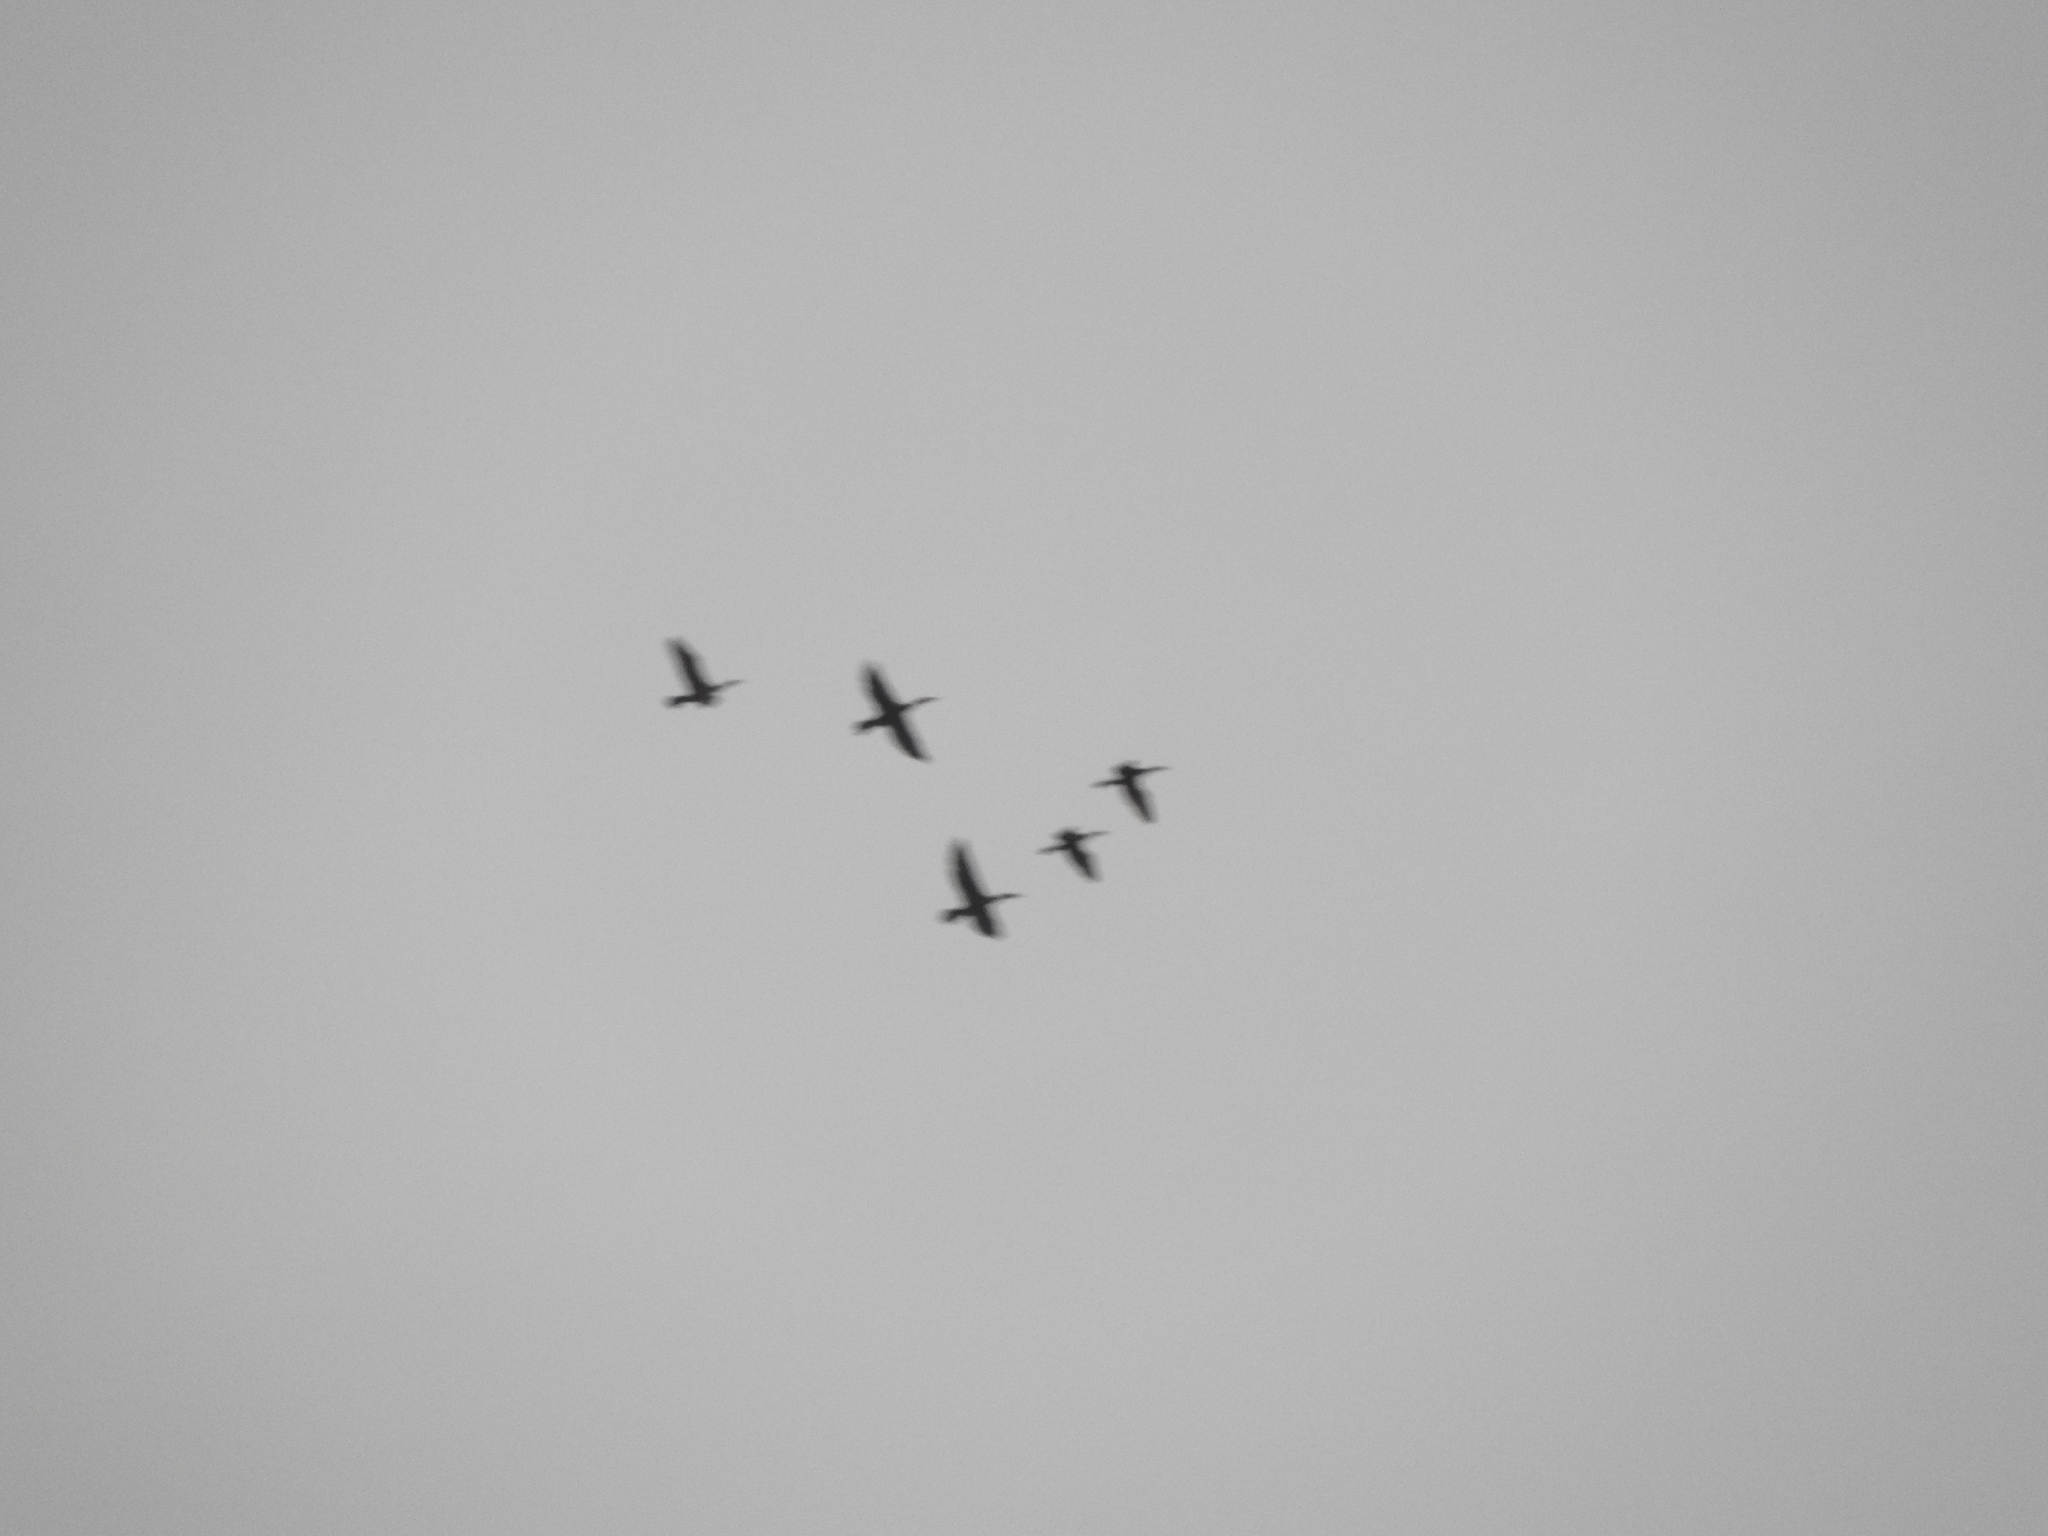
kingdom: Animalia
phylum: Chordata
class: Aves
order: Suliformes
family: Anhingidae
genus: Anhinga
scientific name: Anhinga anhinga
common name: Anhinga
